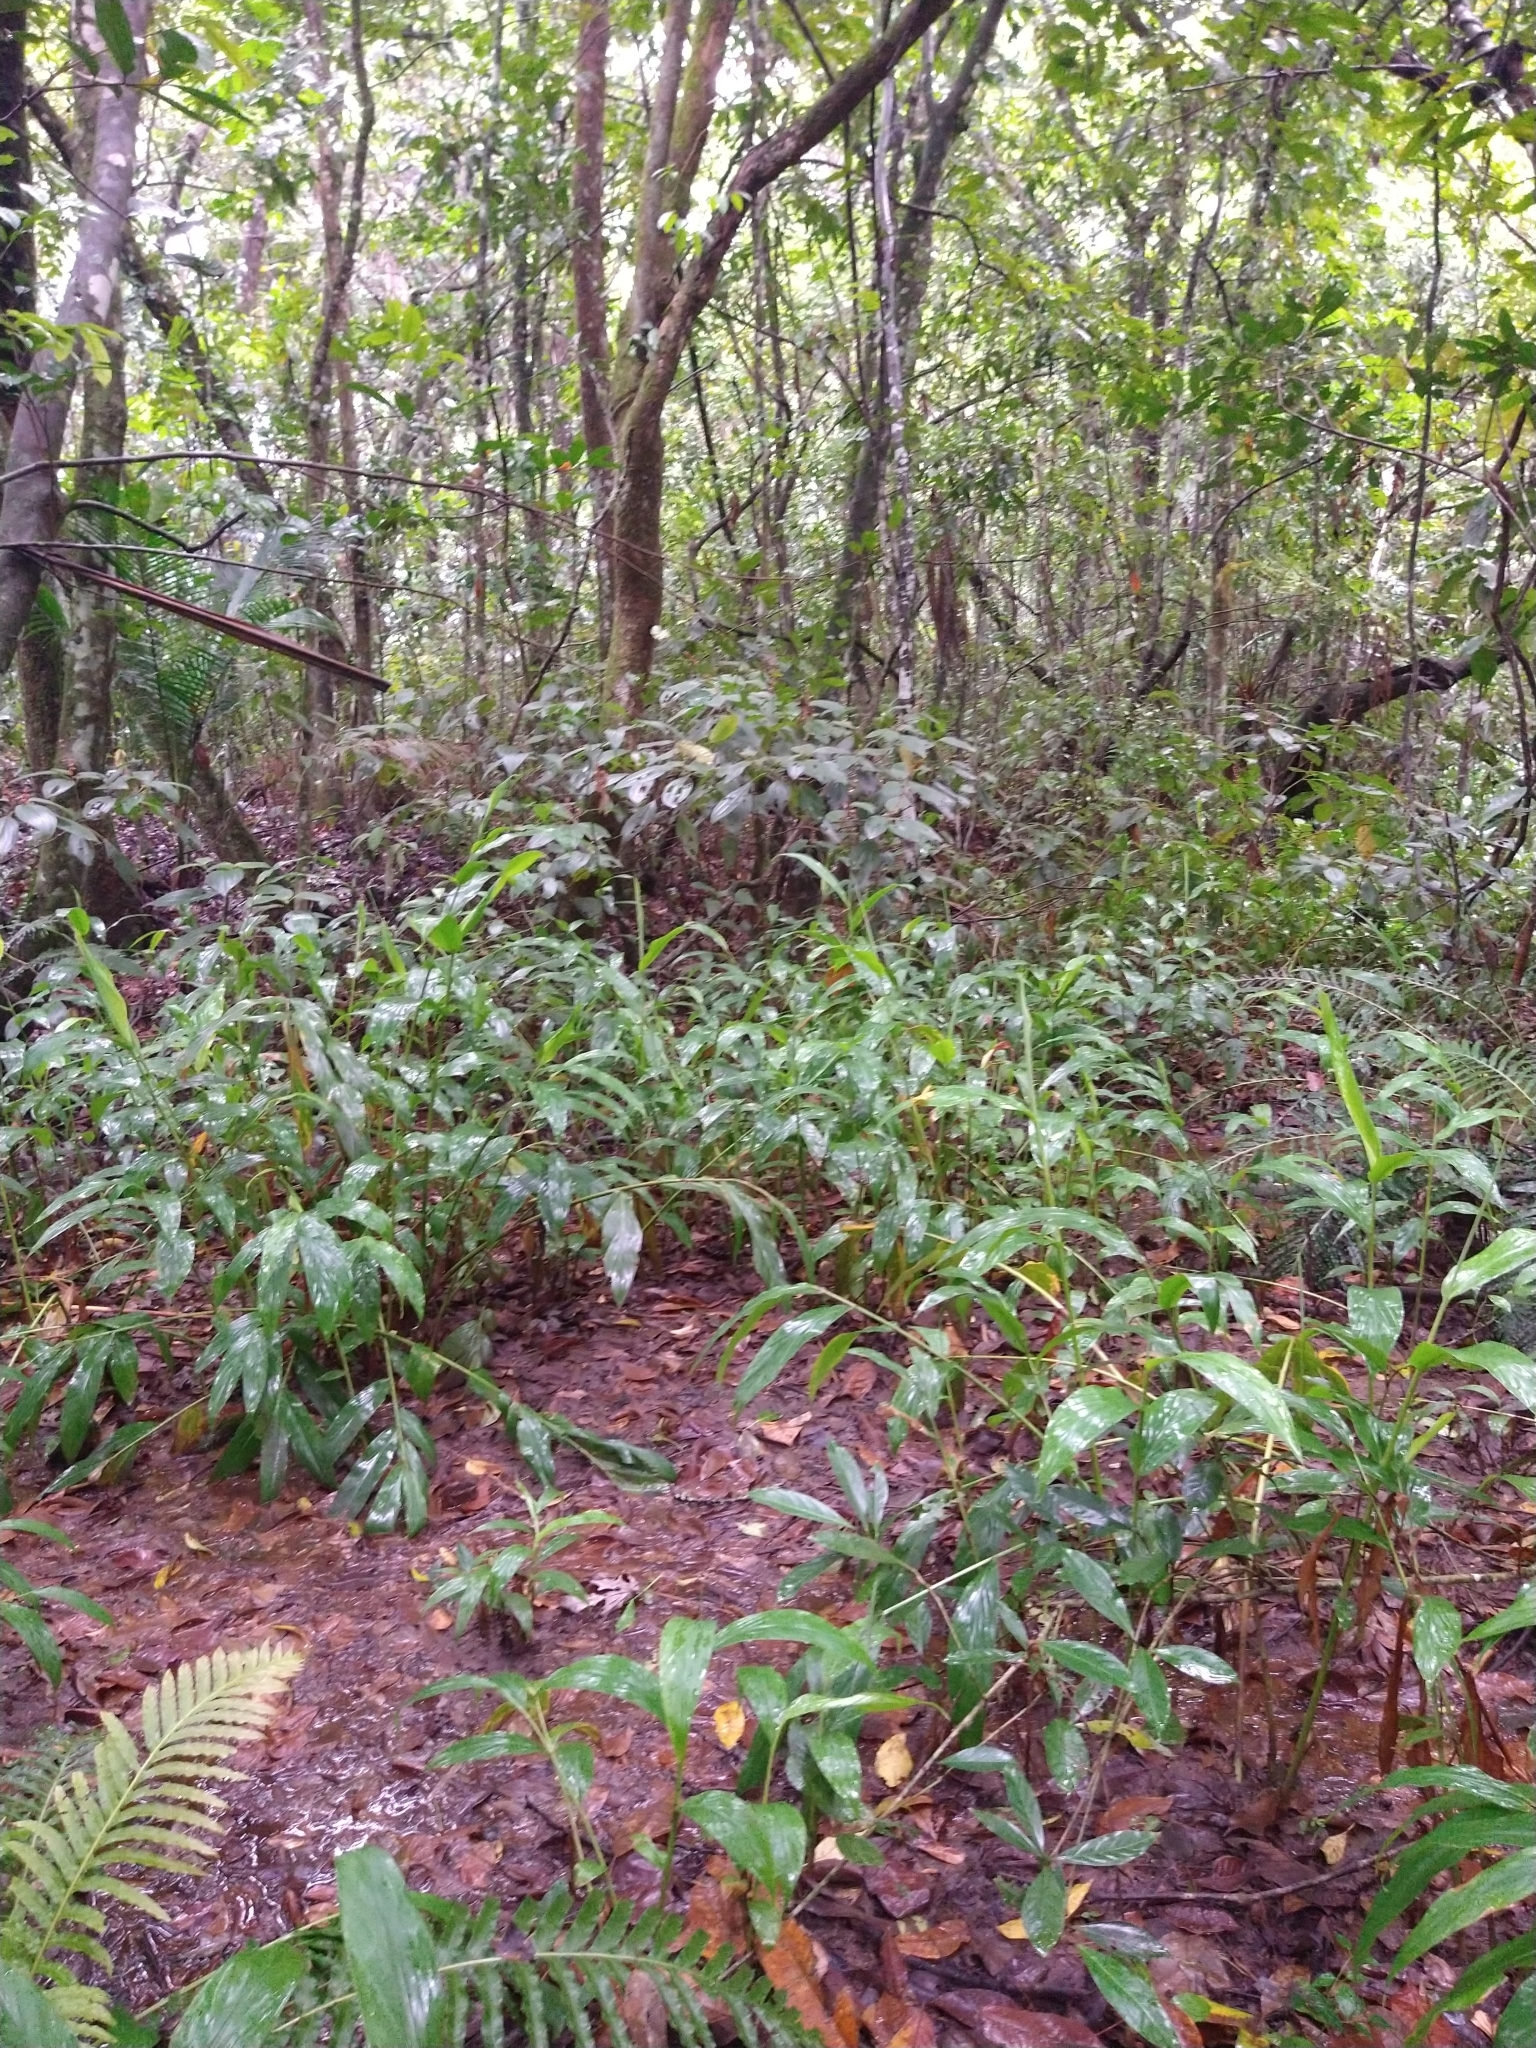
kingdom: Plantae
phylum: Tracheophyta
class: Liliopsida
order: Zingiberales
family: Zingiberaceae
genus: Hedychium
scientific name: Hedychium coronarium
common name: White garland-lily
